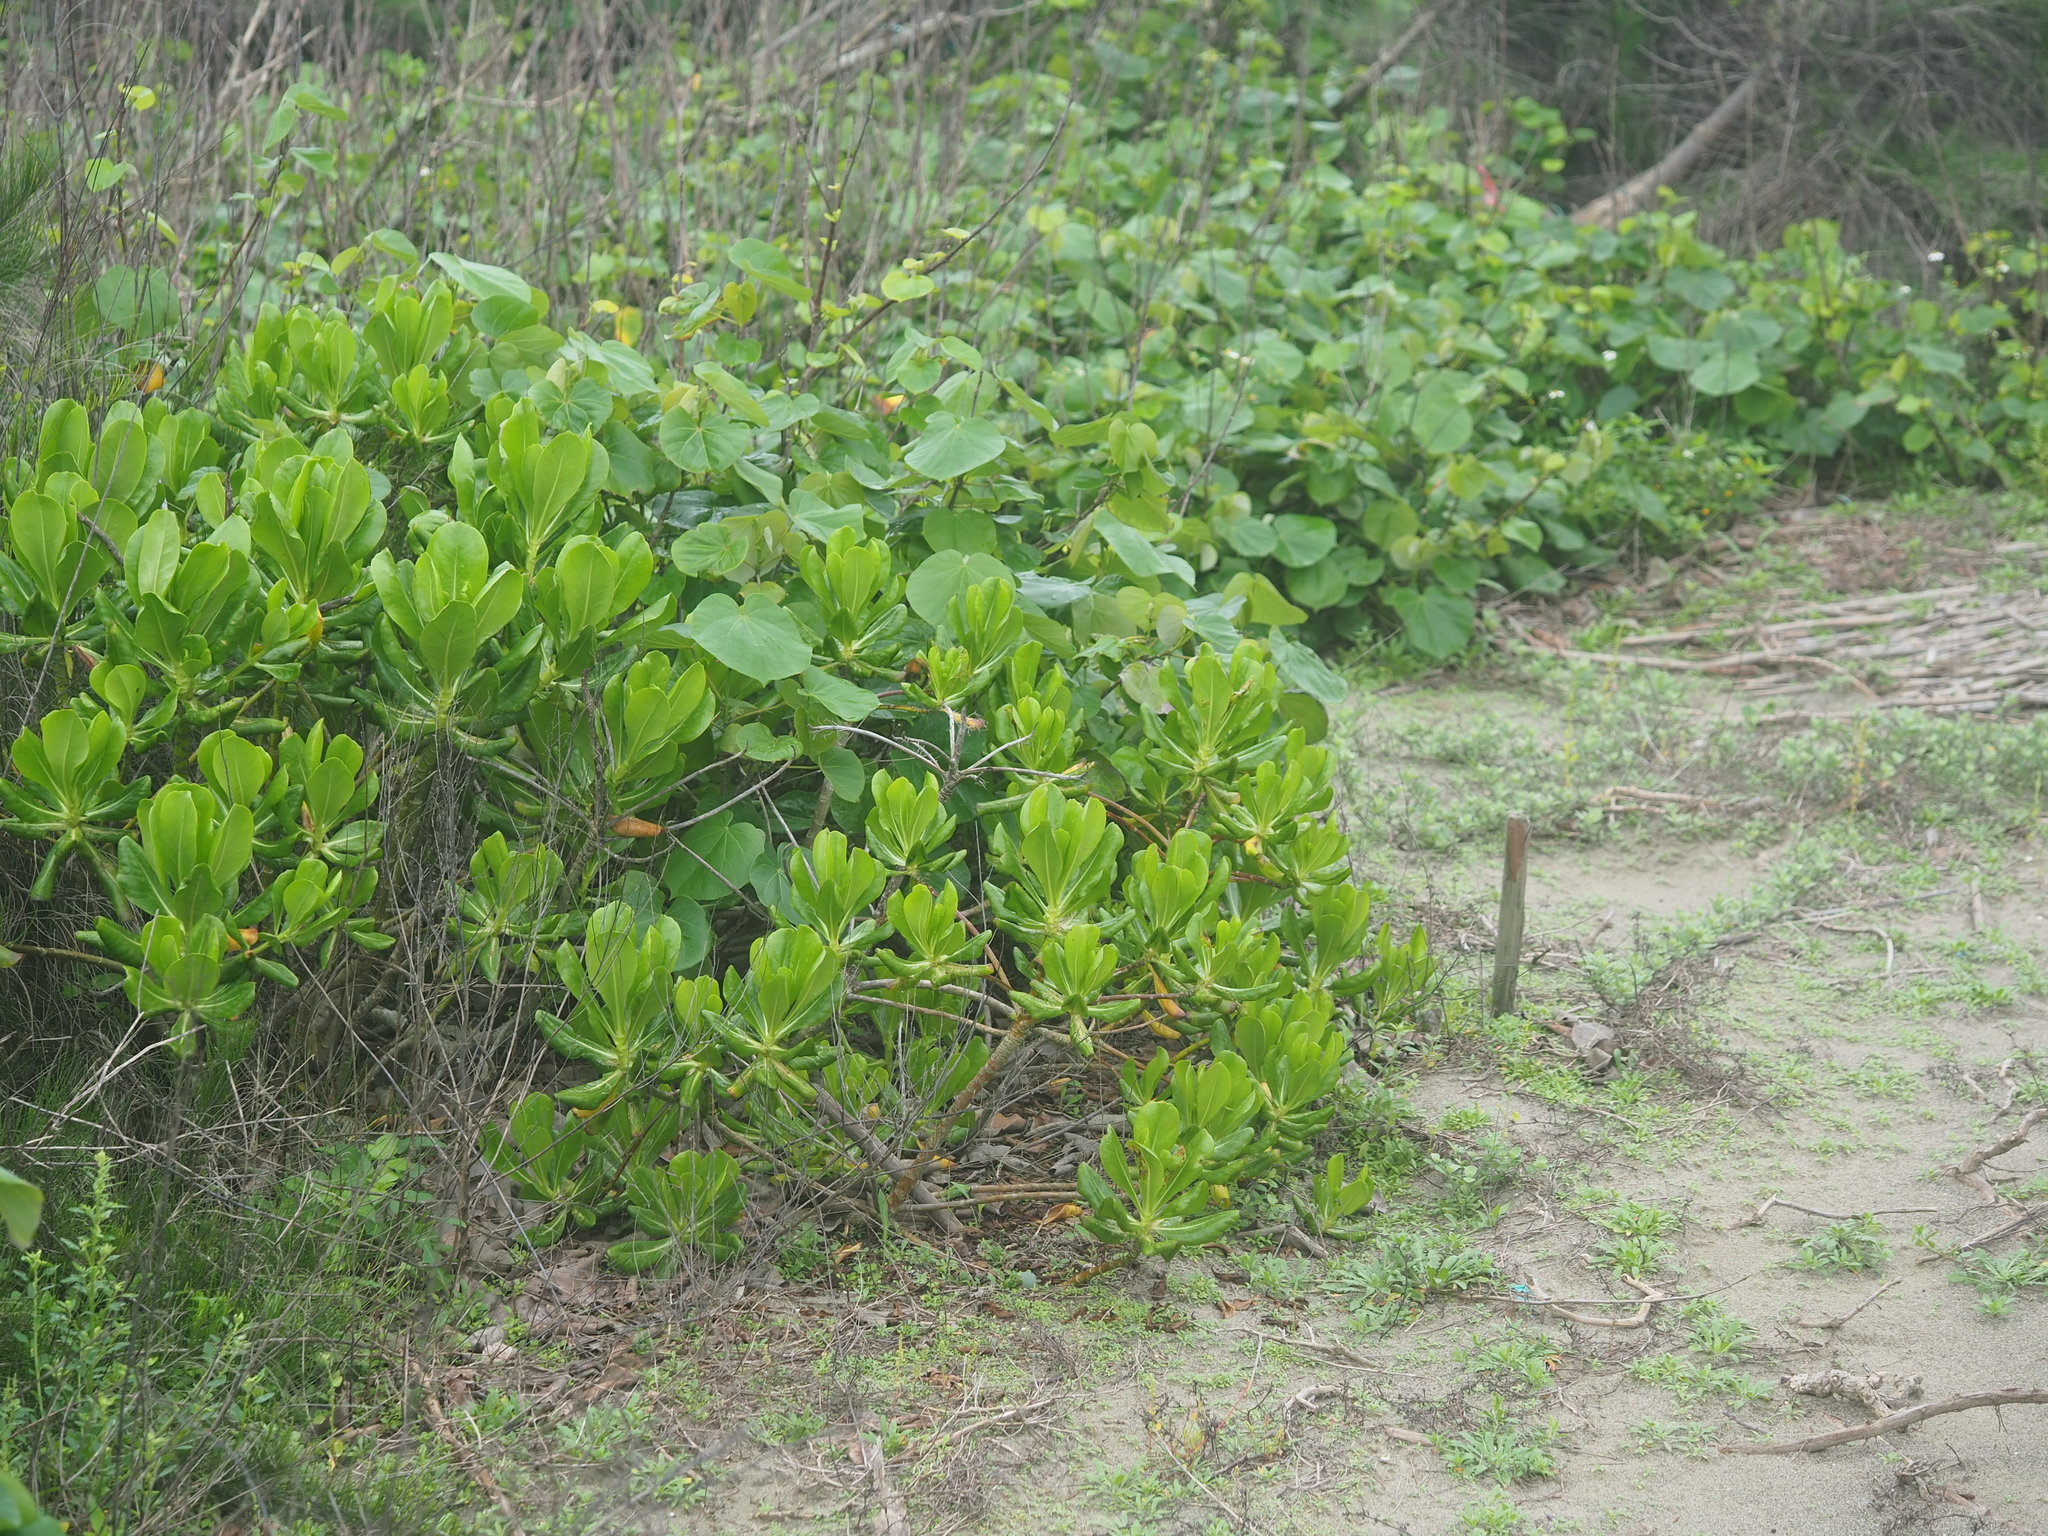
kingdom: Plantae
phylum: Tracheophyta
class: Magnoliopsida
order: Asterales
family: Goodeniaceae
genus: Scaevola
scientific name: Scaevola taccada
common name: Sea lettucetree
